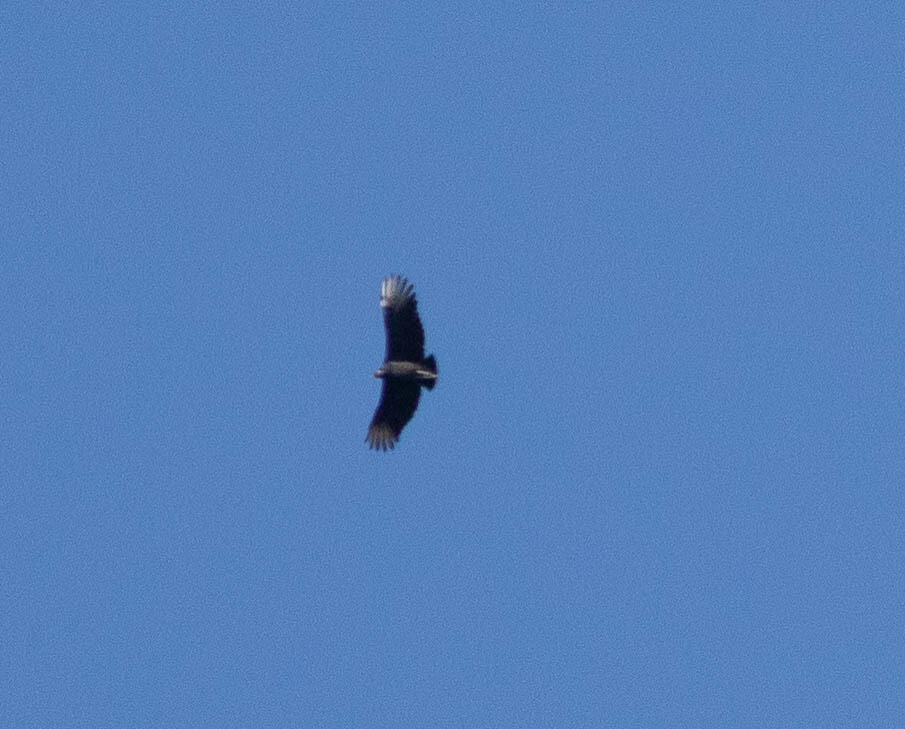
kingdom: Animalia
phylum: Chordata
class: Aves
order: Accipitriformes
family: Cathartidae
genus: Coragyps
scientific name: Coragyps atratus
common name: Black vulture
